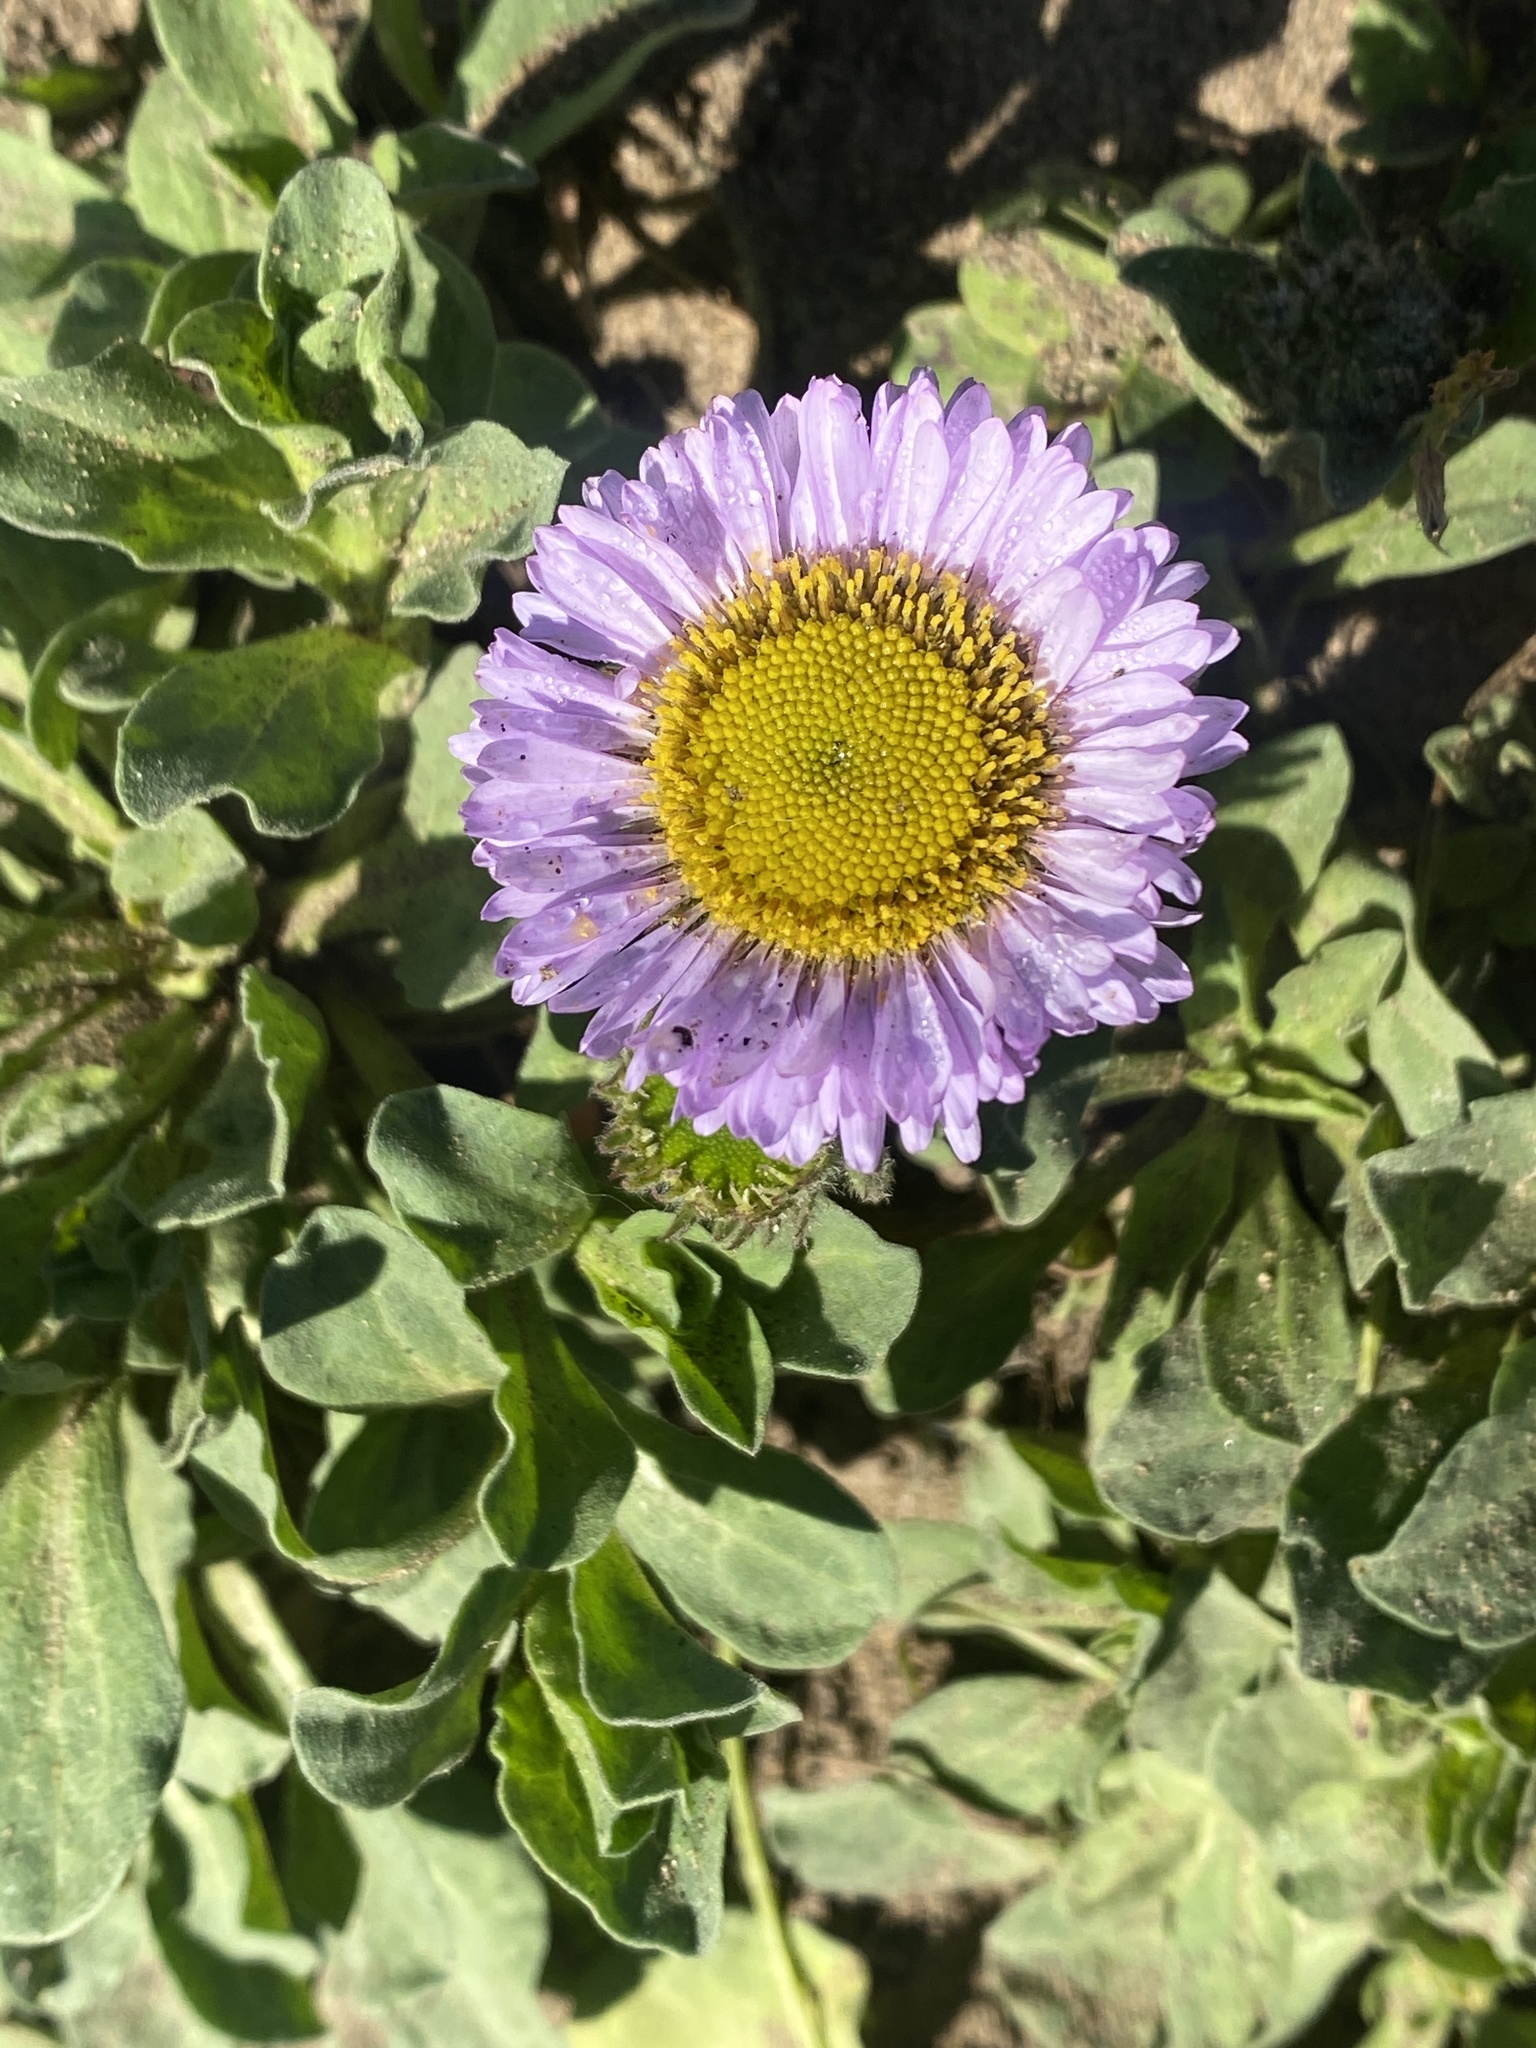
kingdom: Plantae
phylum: Tracheophyta
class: Magnoliopsida
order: Asterales
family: Asteraceae
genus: Erigeron
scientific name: Erigeron glaucus
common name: Seaside daisy
